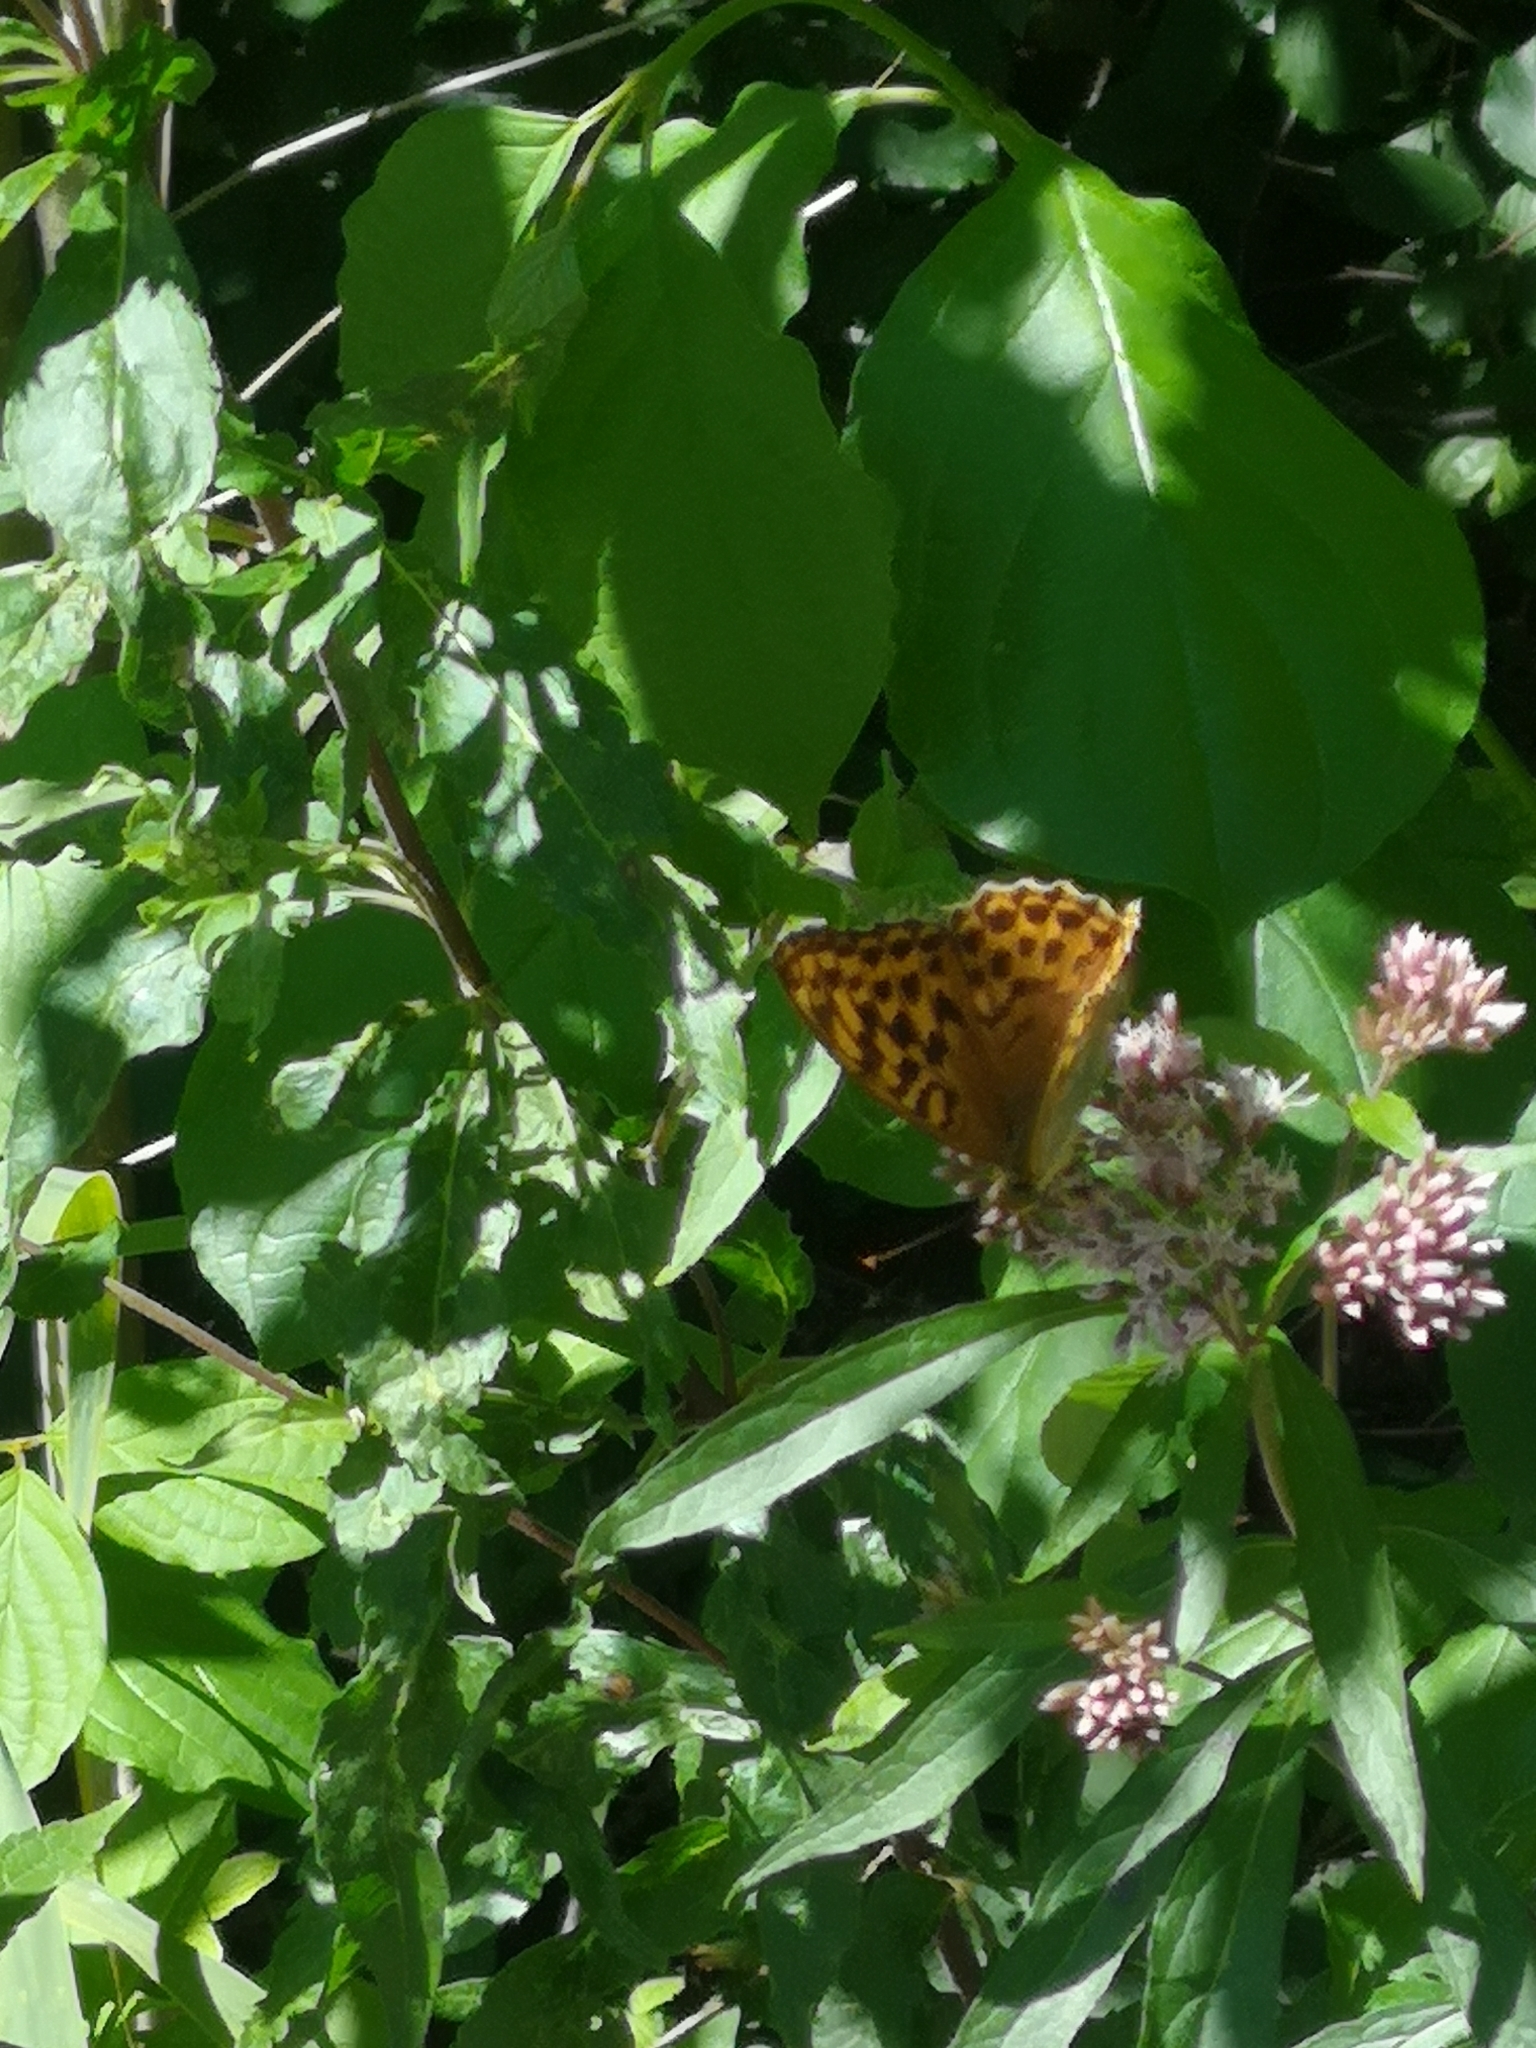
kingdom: Animalia
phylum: Arthropoda
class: Insecta
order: Lepidoptera
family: Nymphalidae
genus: Argynnis
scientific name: Argynnis paphia
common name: Silver-washed fritillary
